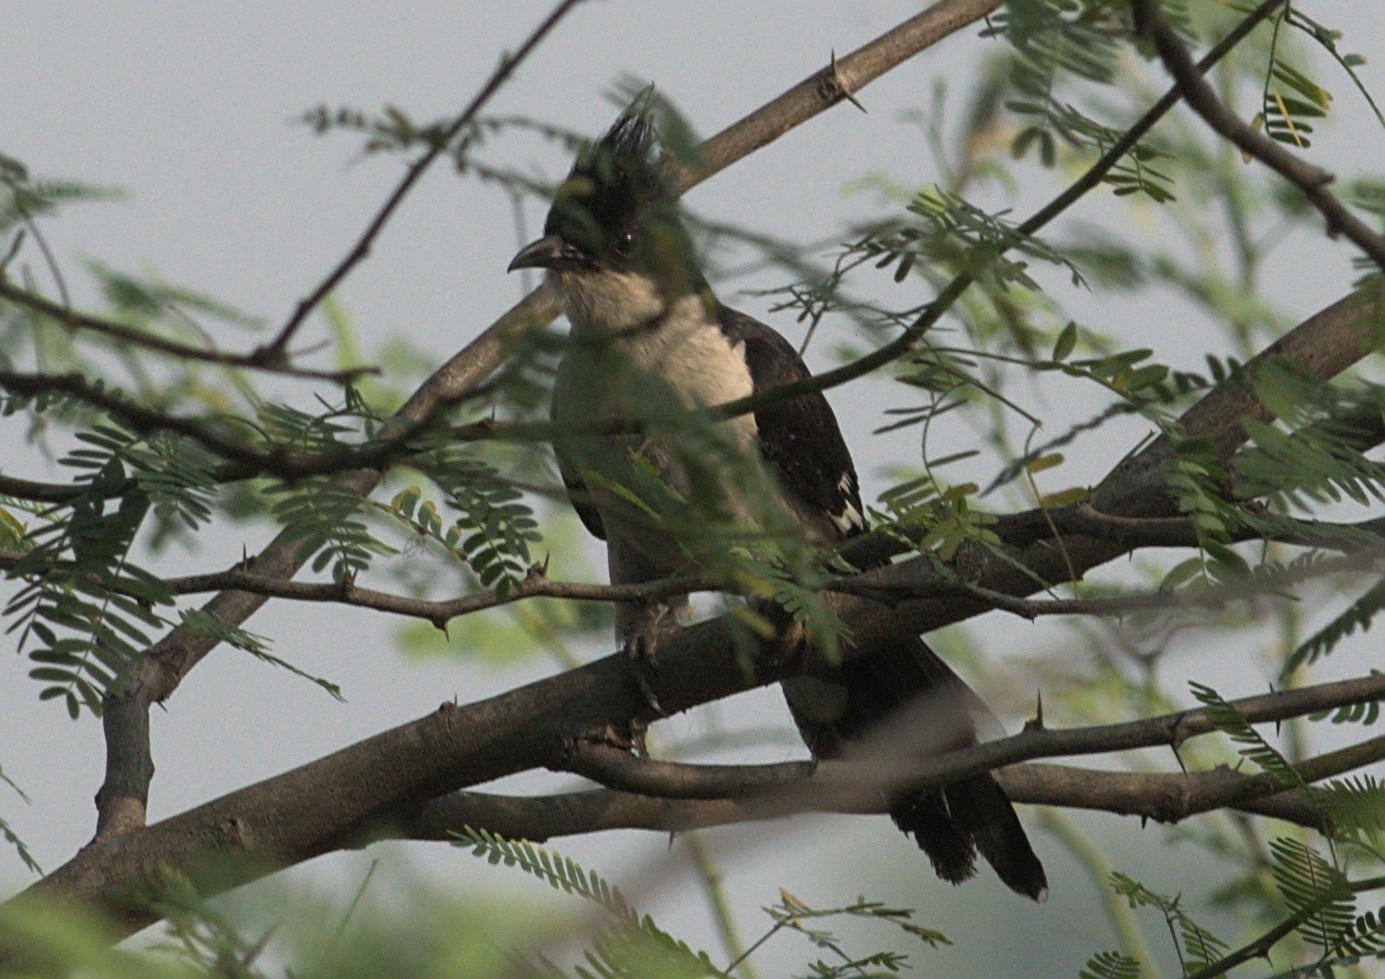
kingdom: Animalia
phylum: Chordata
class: Aves
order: Cuculiformes
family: Cuculidae
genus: Clamator
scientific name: Clamator jacobinus
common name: Jacobin cuckoo
